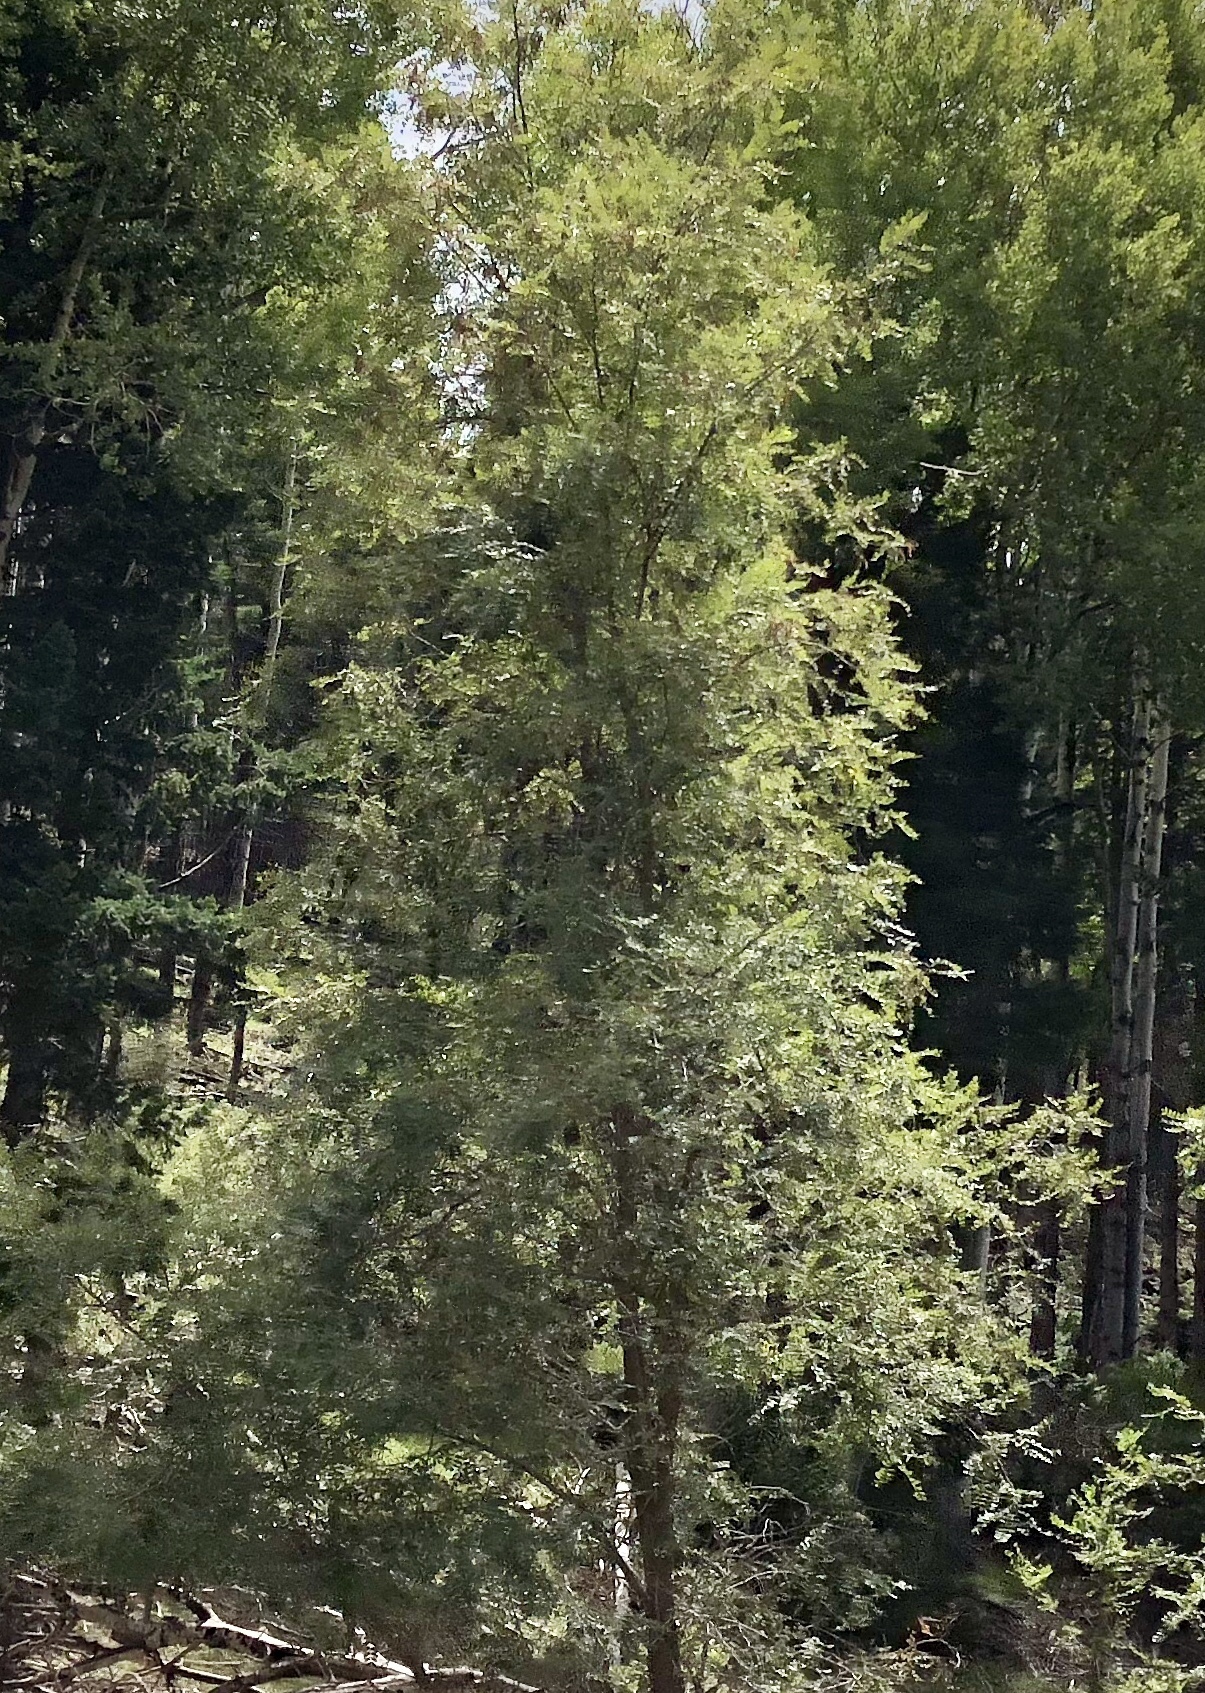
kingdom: Plantae
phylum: Tracheophyta
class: Magnoliopsida
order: Fabales
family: Fabaceae
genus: Robinia
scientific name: Robinia neomexicana
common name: New mexico locust
